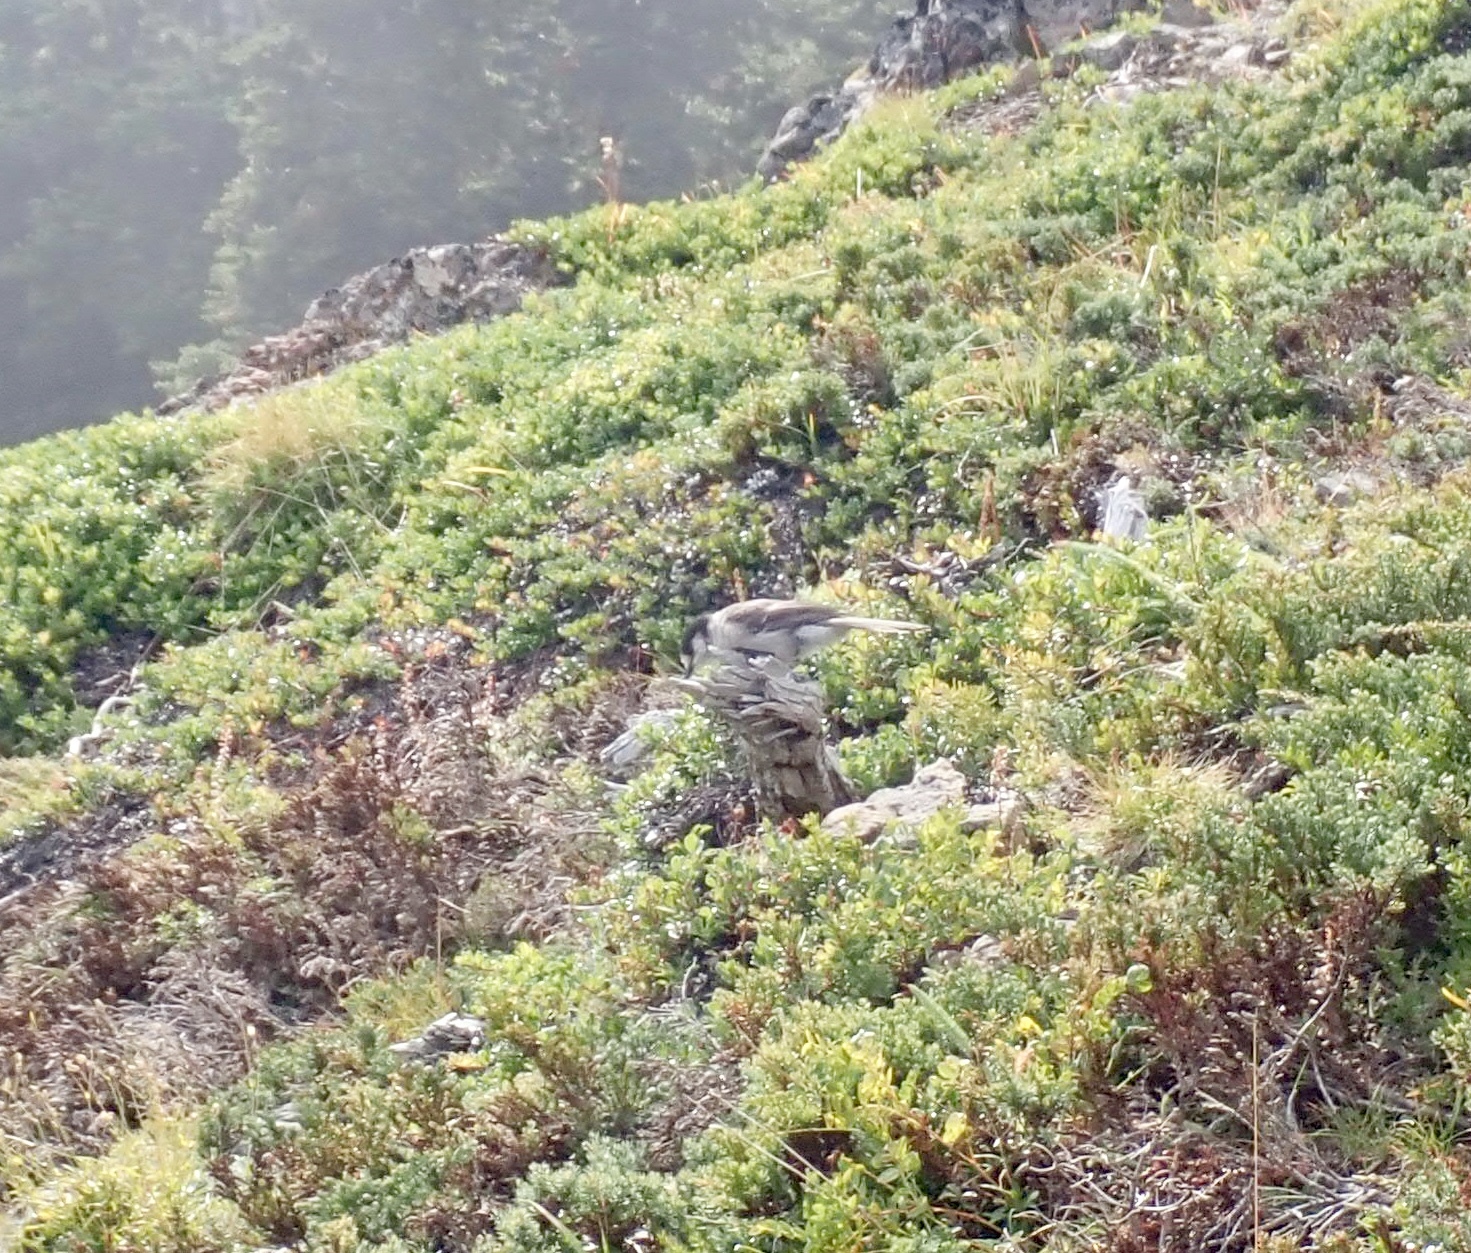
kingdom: Animalia
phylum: Chordata
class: Aves
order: Passeriformes
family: Corvidae
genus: Perisoreus
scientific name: Perisoreus canadensis
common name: Gray jay
